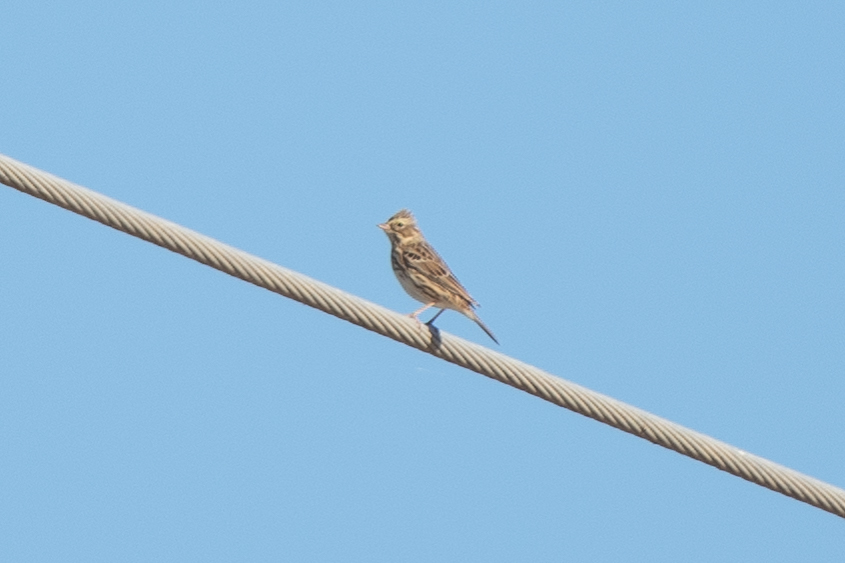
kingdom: Animalia
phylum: Chordata
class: Aves
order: Passeriformes
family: Passerellidae
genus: Passerculus
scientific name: Passerculus sandwichensis
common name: Savannah sparrow
